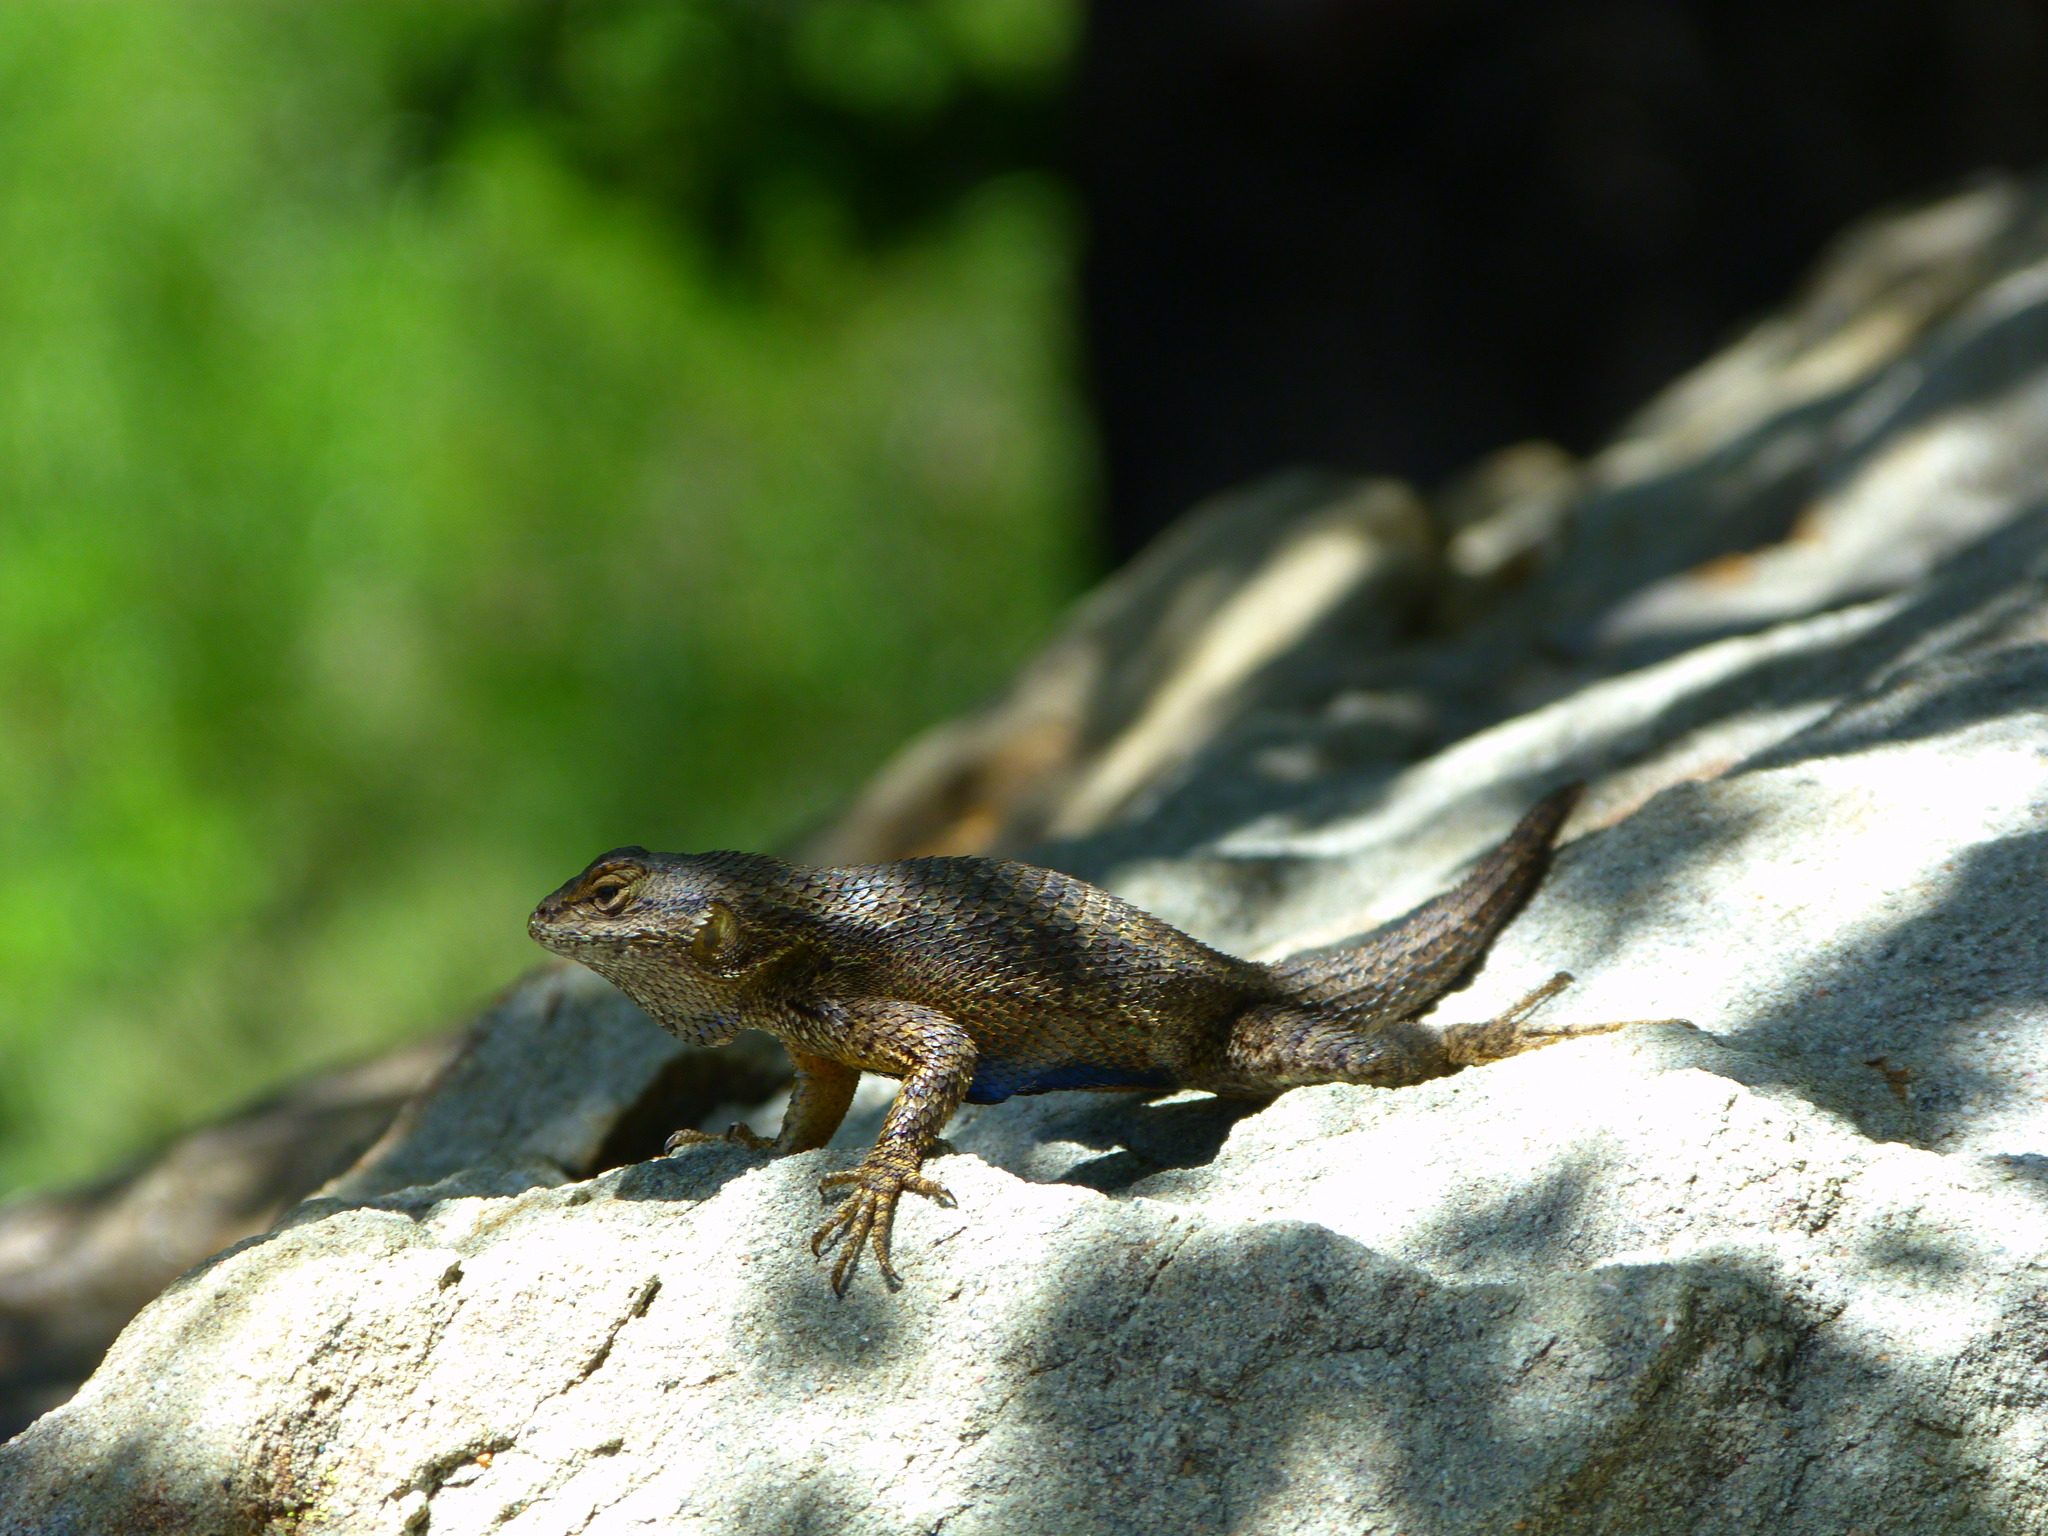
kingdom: Animalia
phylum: Chordata
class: Squamata
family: Phrynosomatidae
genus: Sceloporus
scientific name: Sceloporus occidentalis
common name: Western fence lizard
